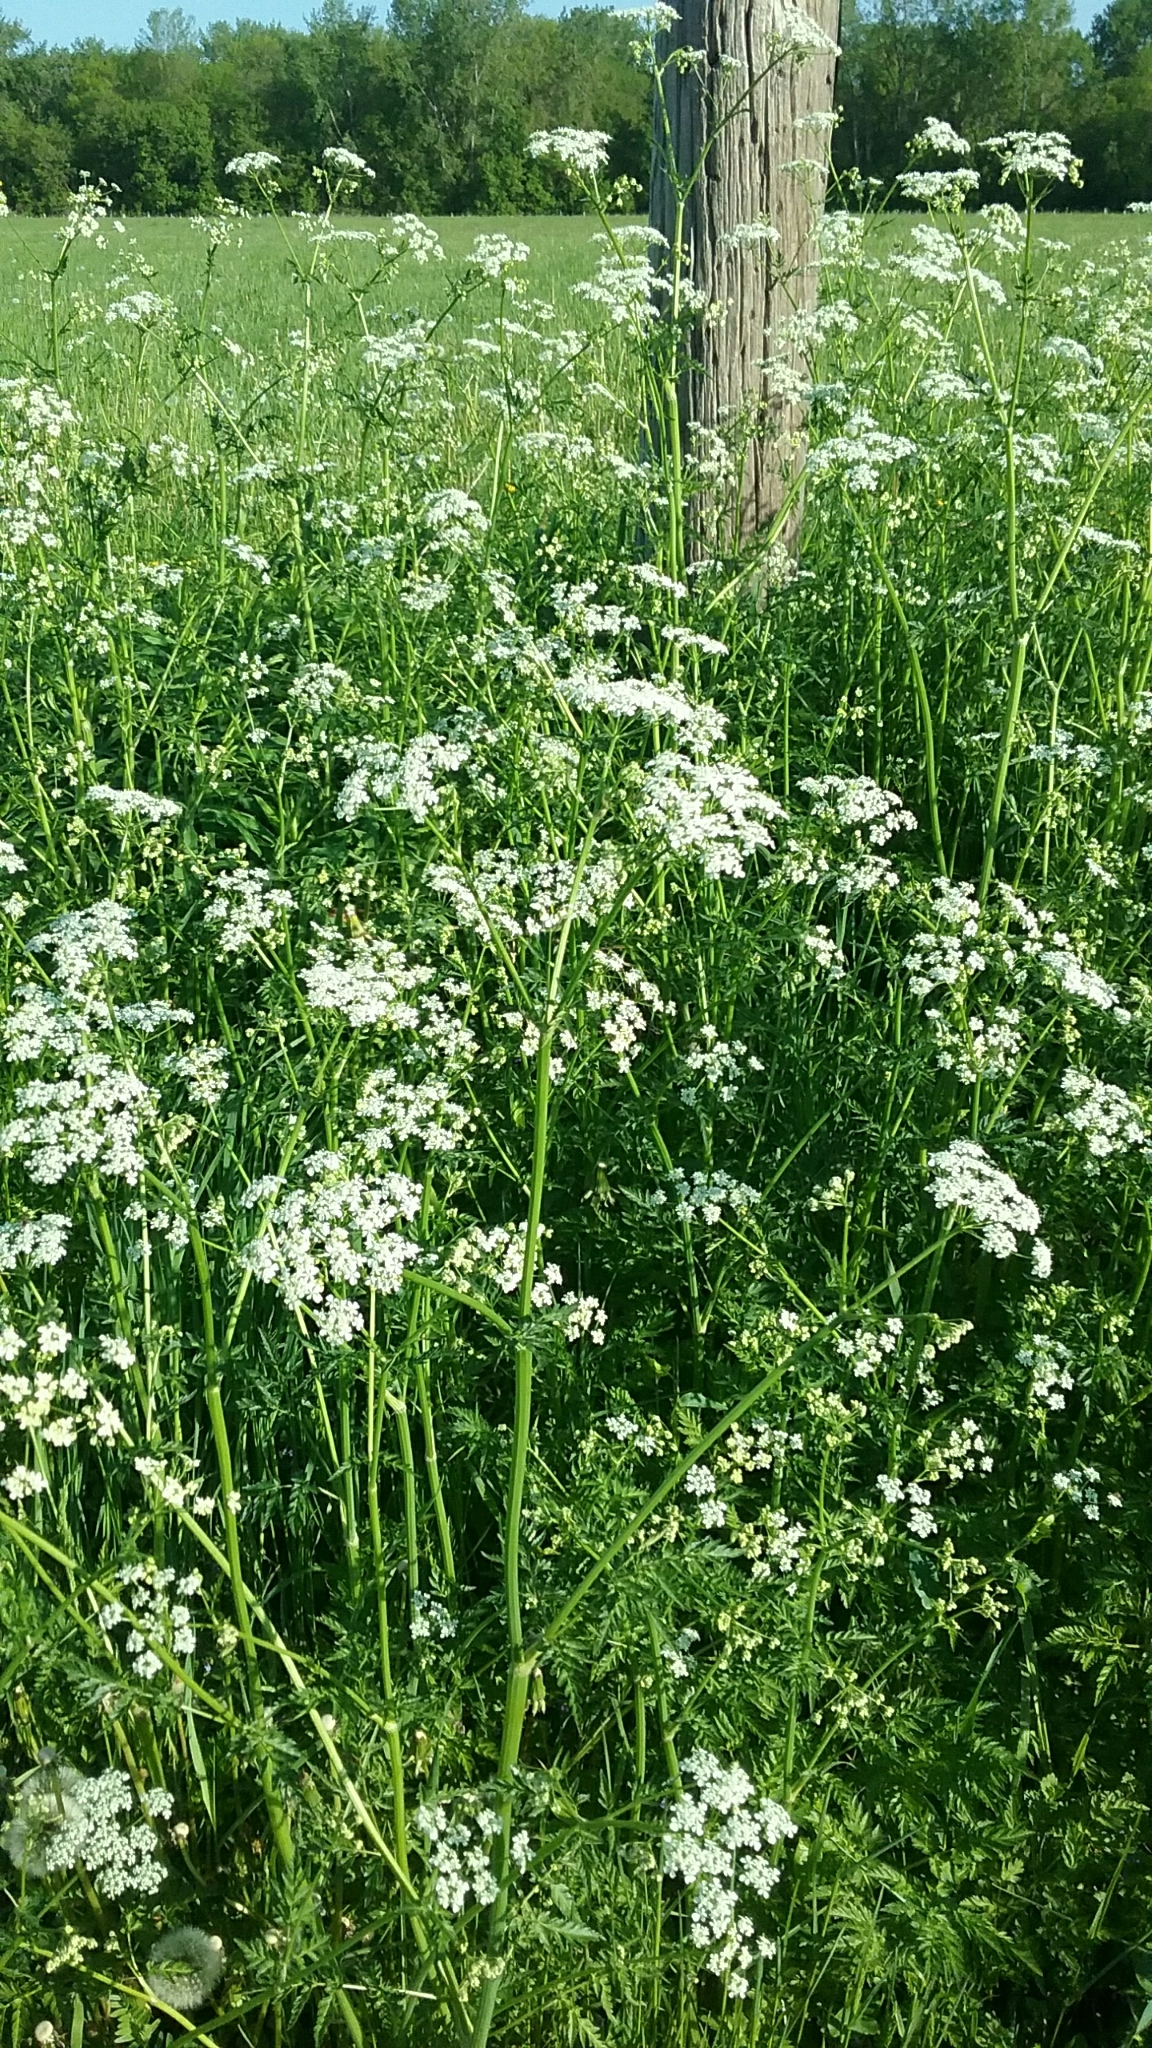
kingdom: Plantae
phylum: Tracheophyta
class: Magnoliopsida
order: Apiales
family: Apiaceae
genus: Anthriscus
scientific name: Anthriscus sylvestris
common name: Cow parsley
